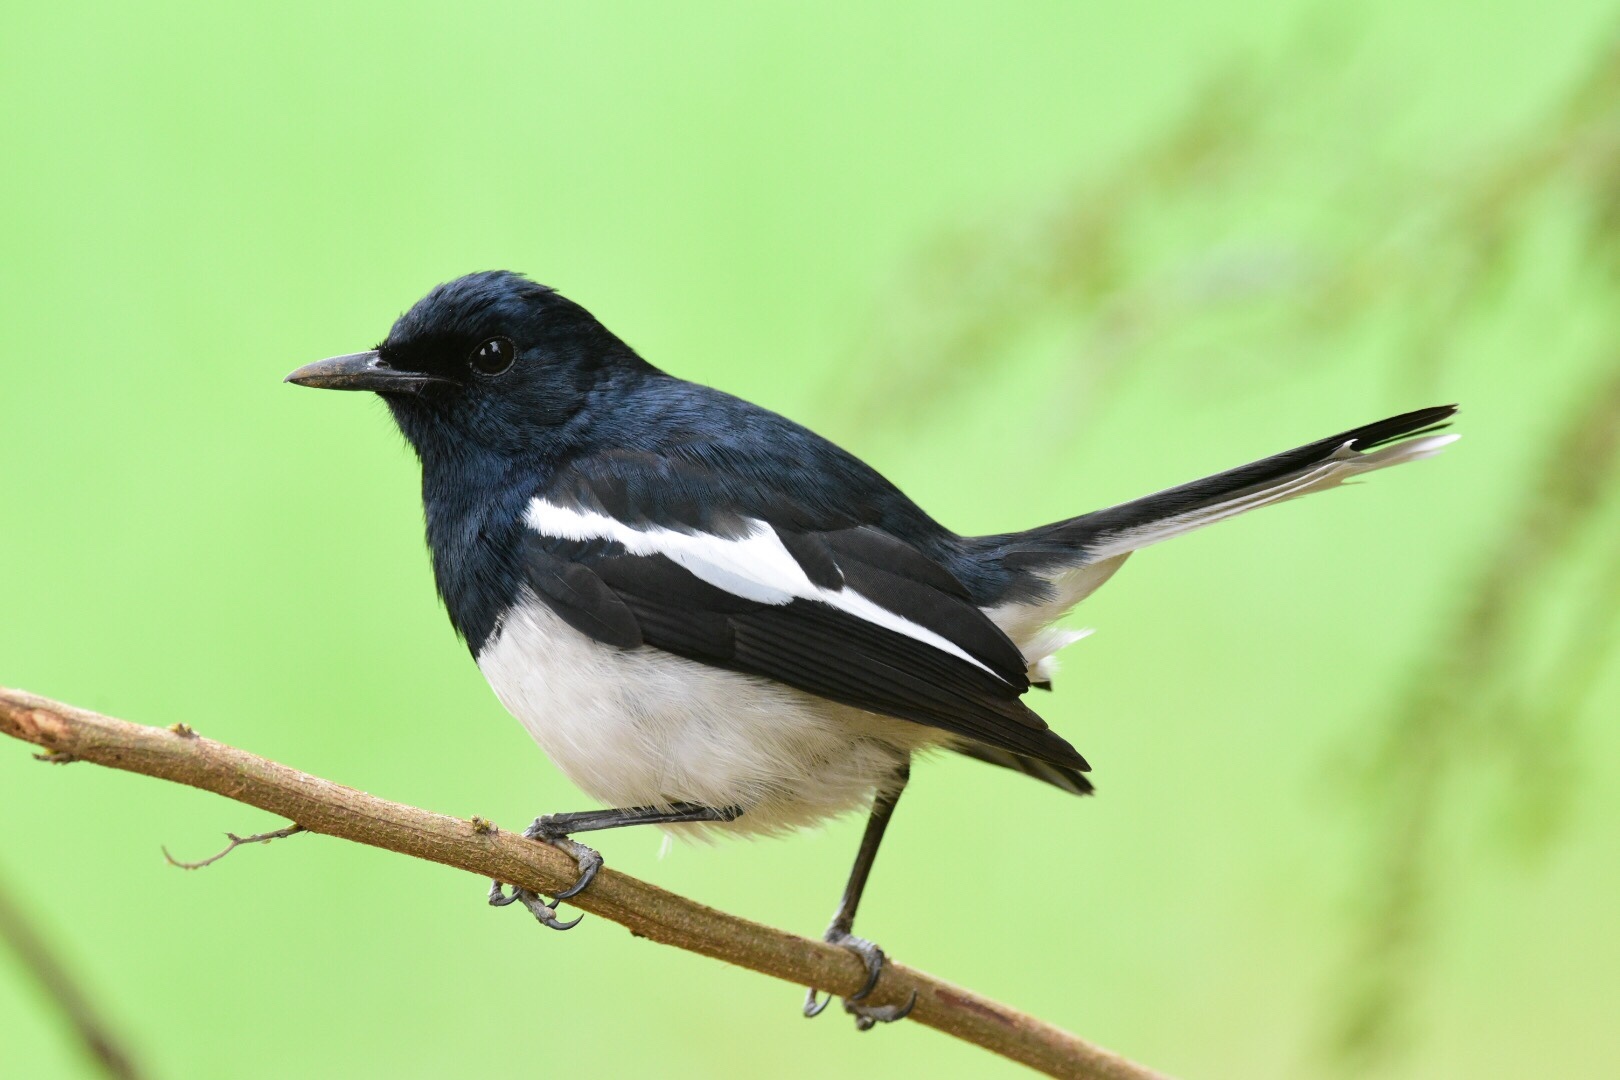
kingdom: Animalia
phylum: Chordata
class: Aves
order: Passeriformes
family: Muscicapidae
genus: Copsychus
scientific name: Copsychus saularis
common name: Oriental magpie-robin
